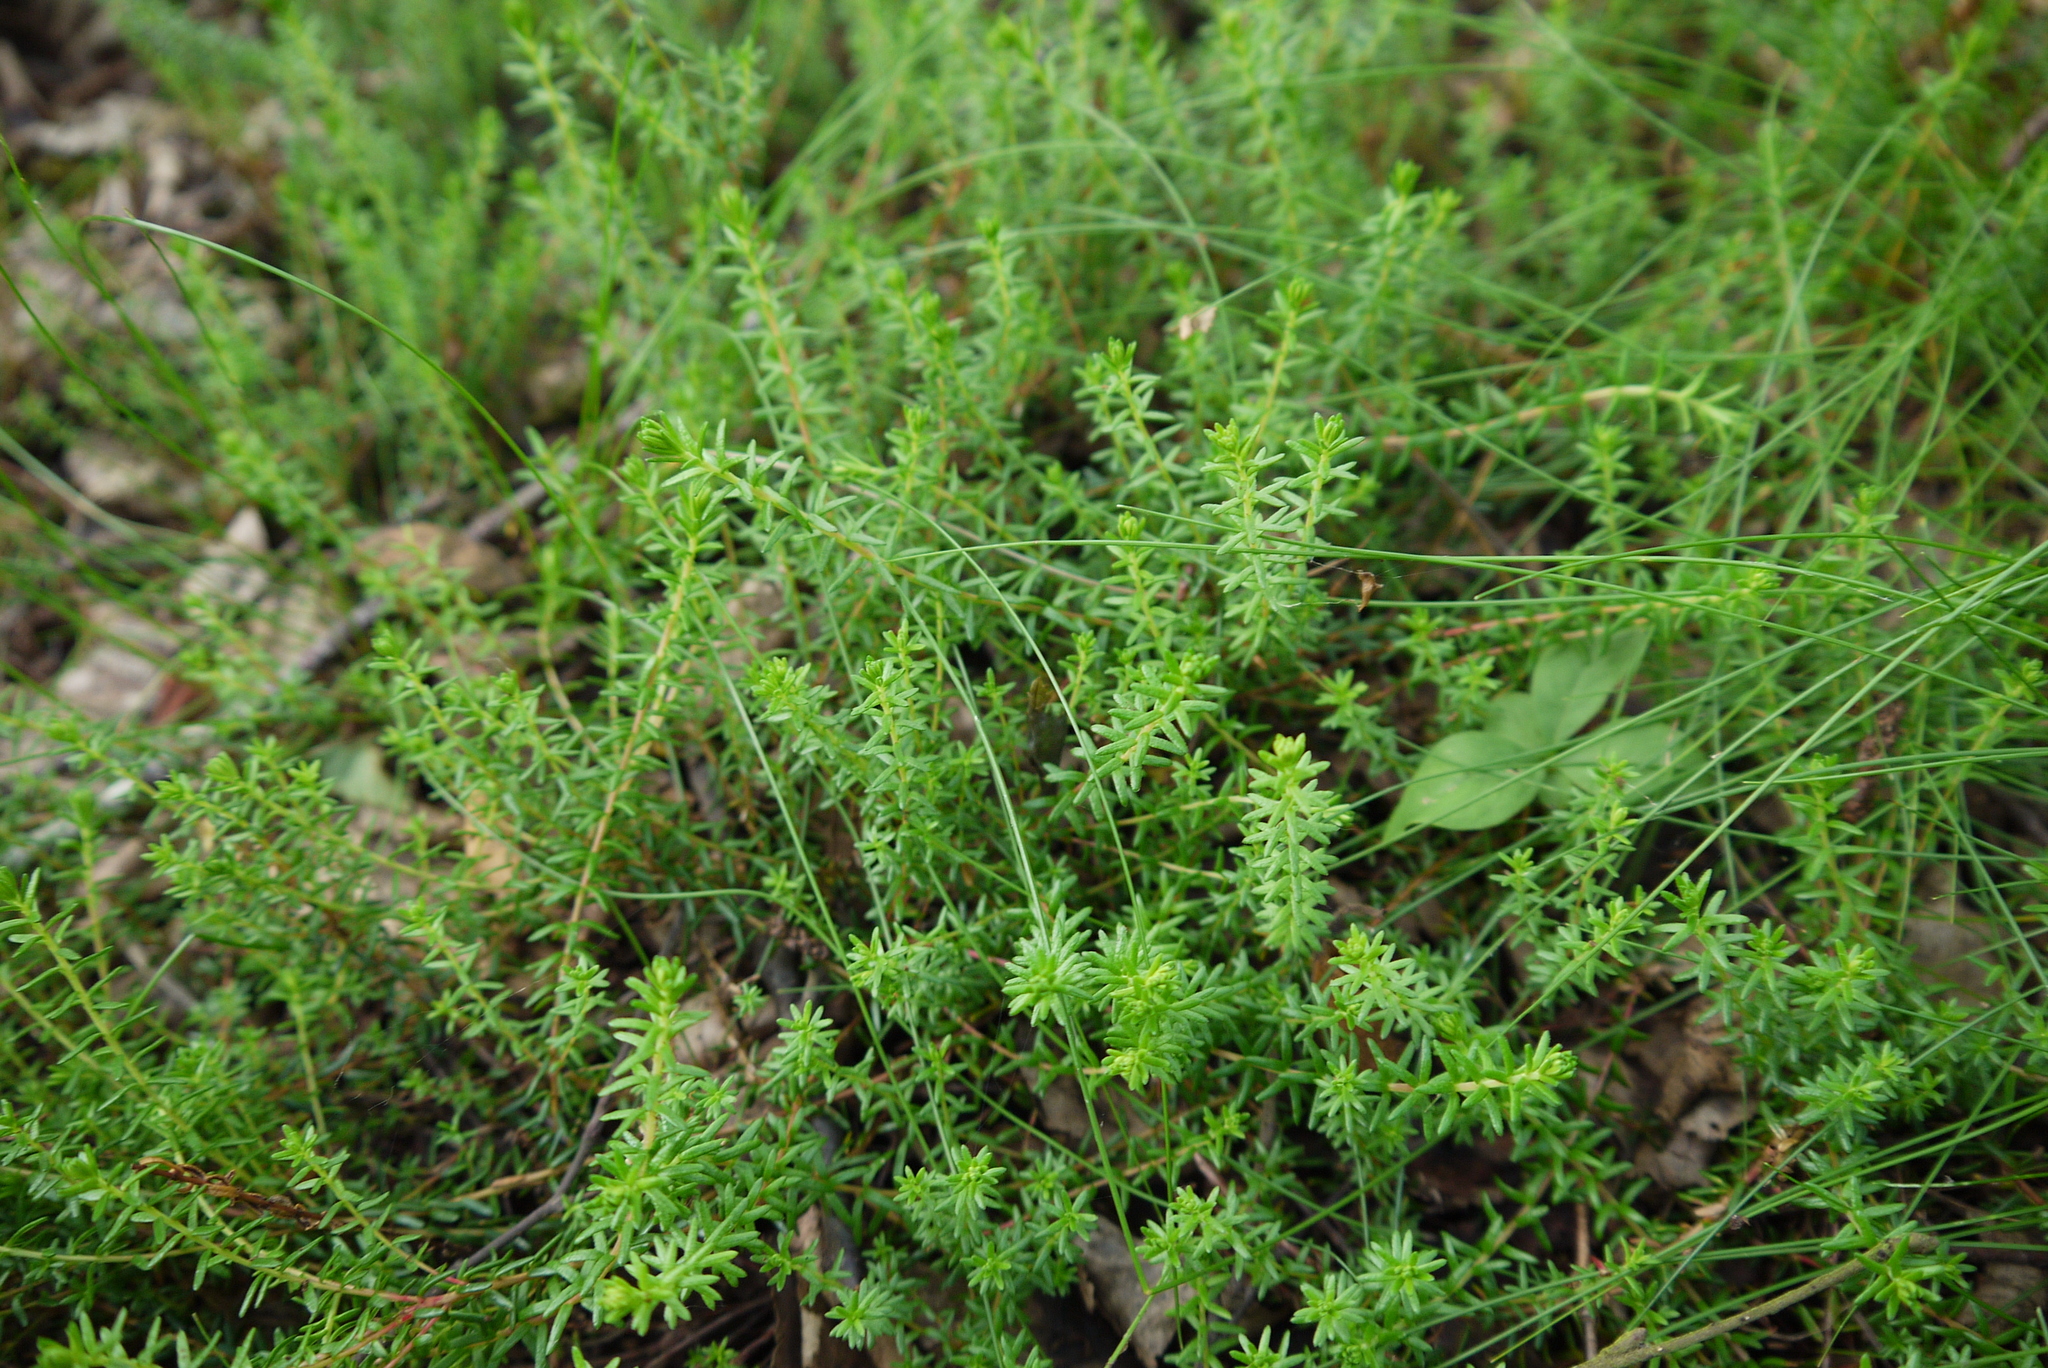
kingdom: Plantae
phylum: Tracheophyta
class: Magnoliopsida
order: Ericales
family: Ericaceae
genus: Empetrum
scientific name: Empetrum nigrum
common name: Black crowberry
